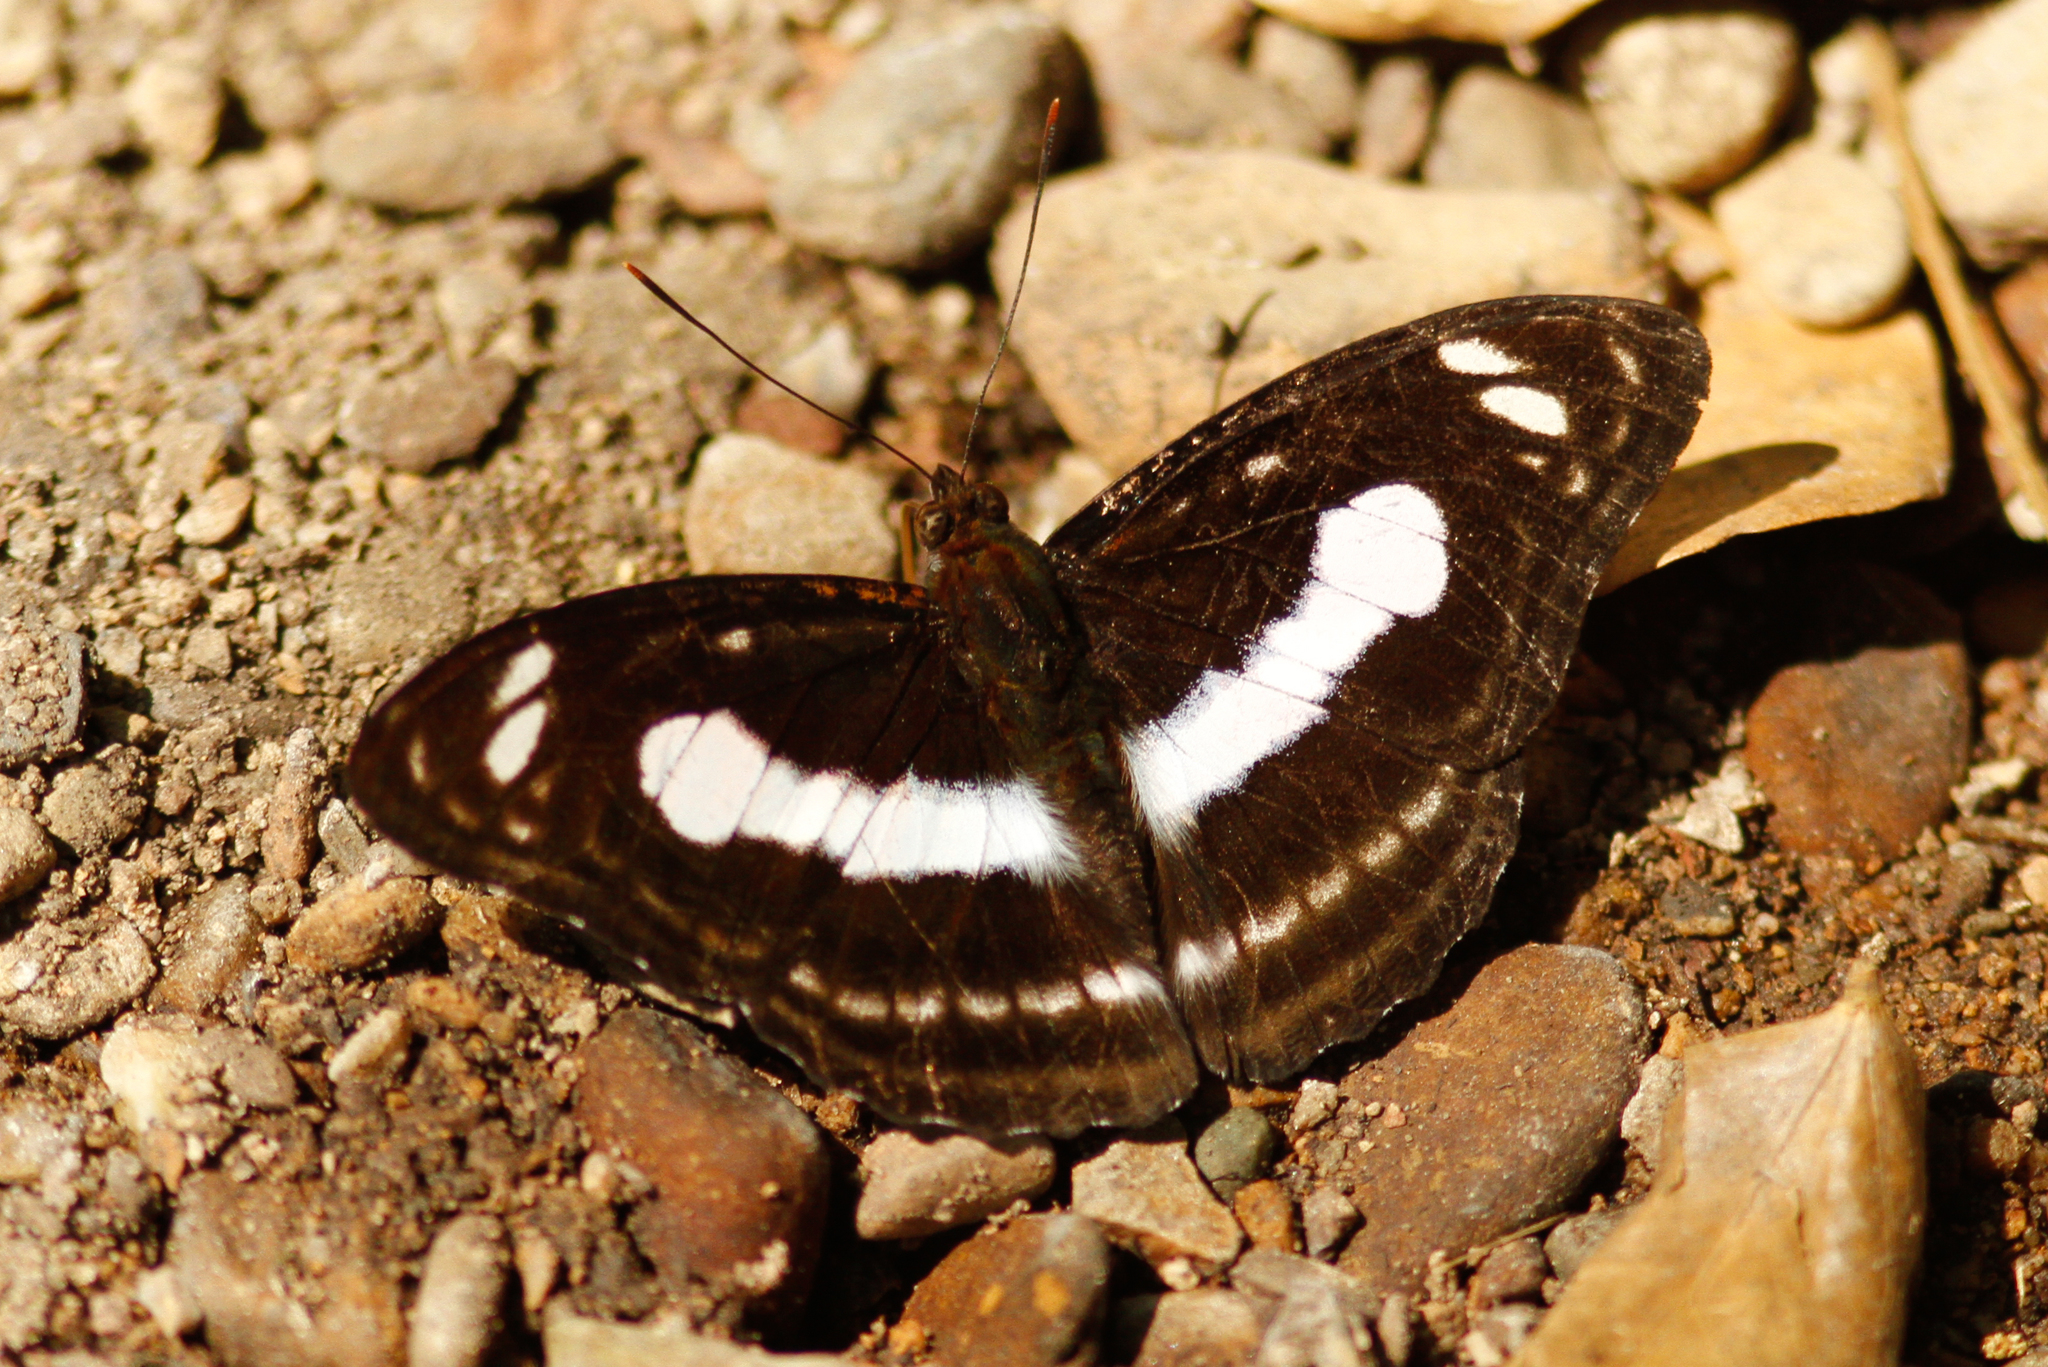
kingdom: Animalia
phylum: Arthropoda
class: Insecta
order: Lepidoptera
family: Nymphalidae
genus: Parathyma
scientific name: Parathyma selenophora
